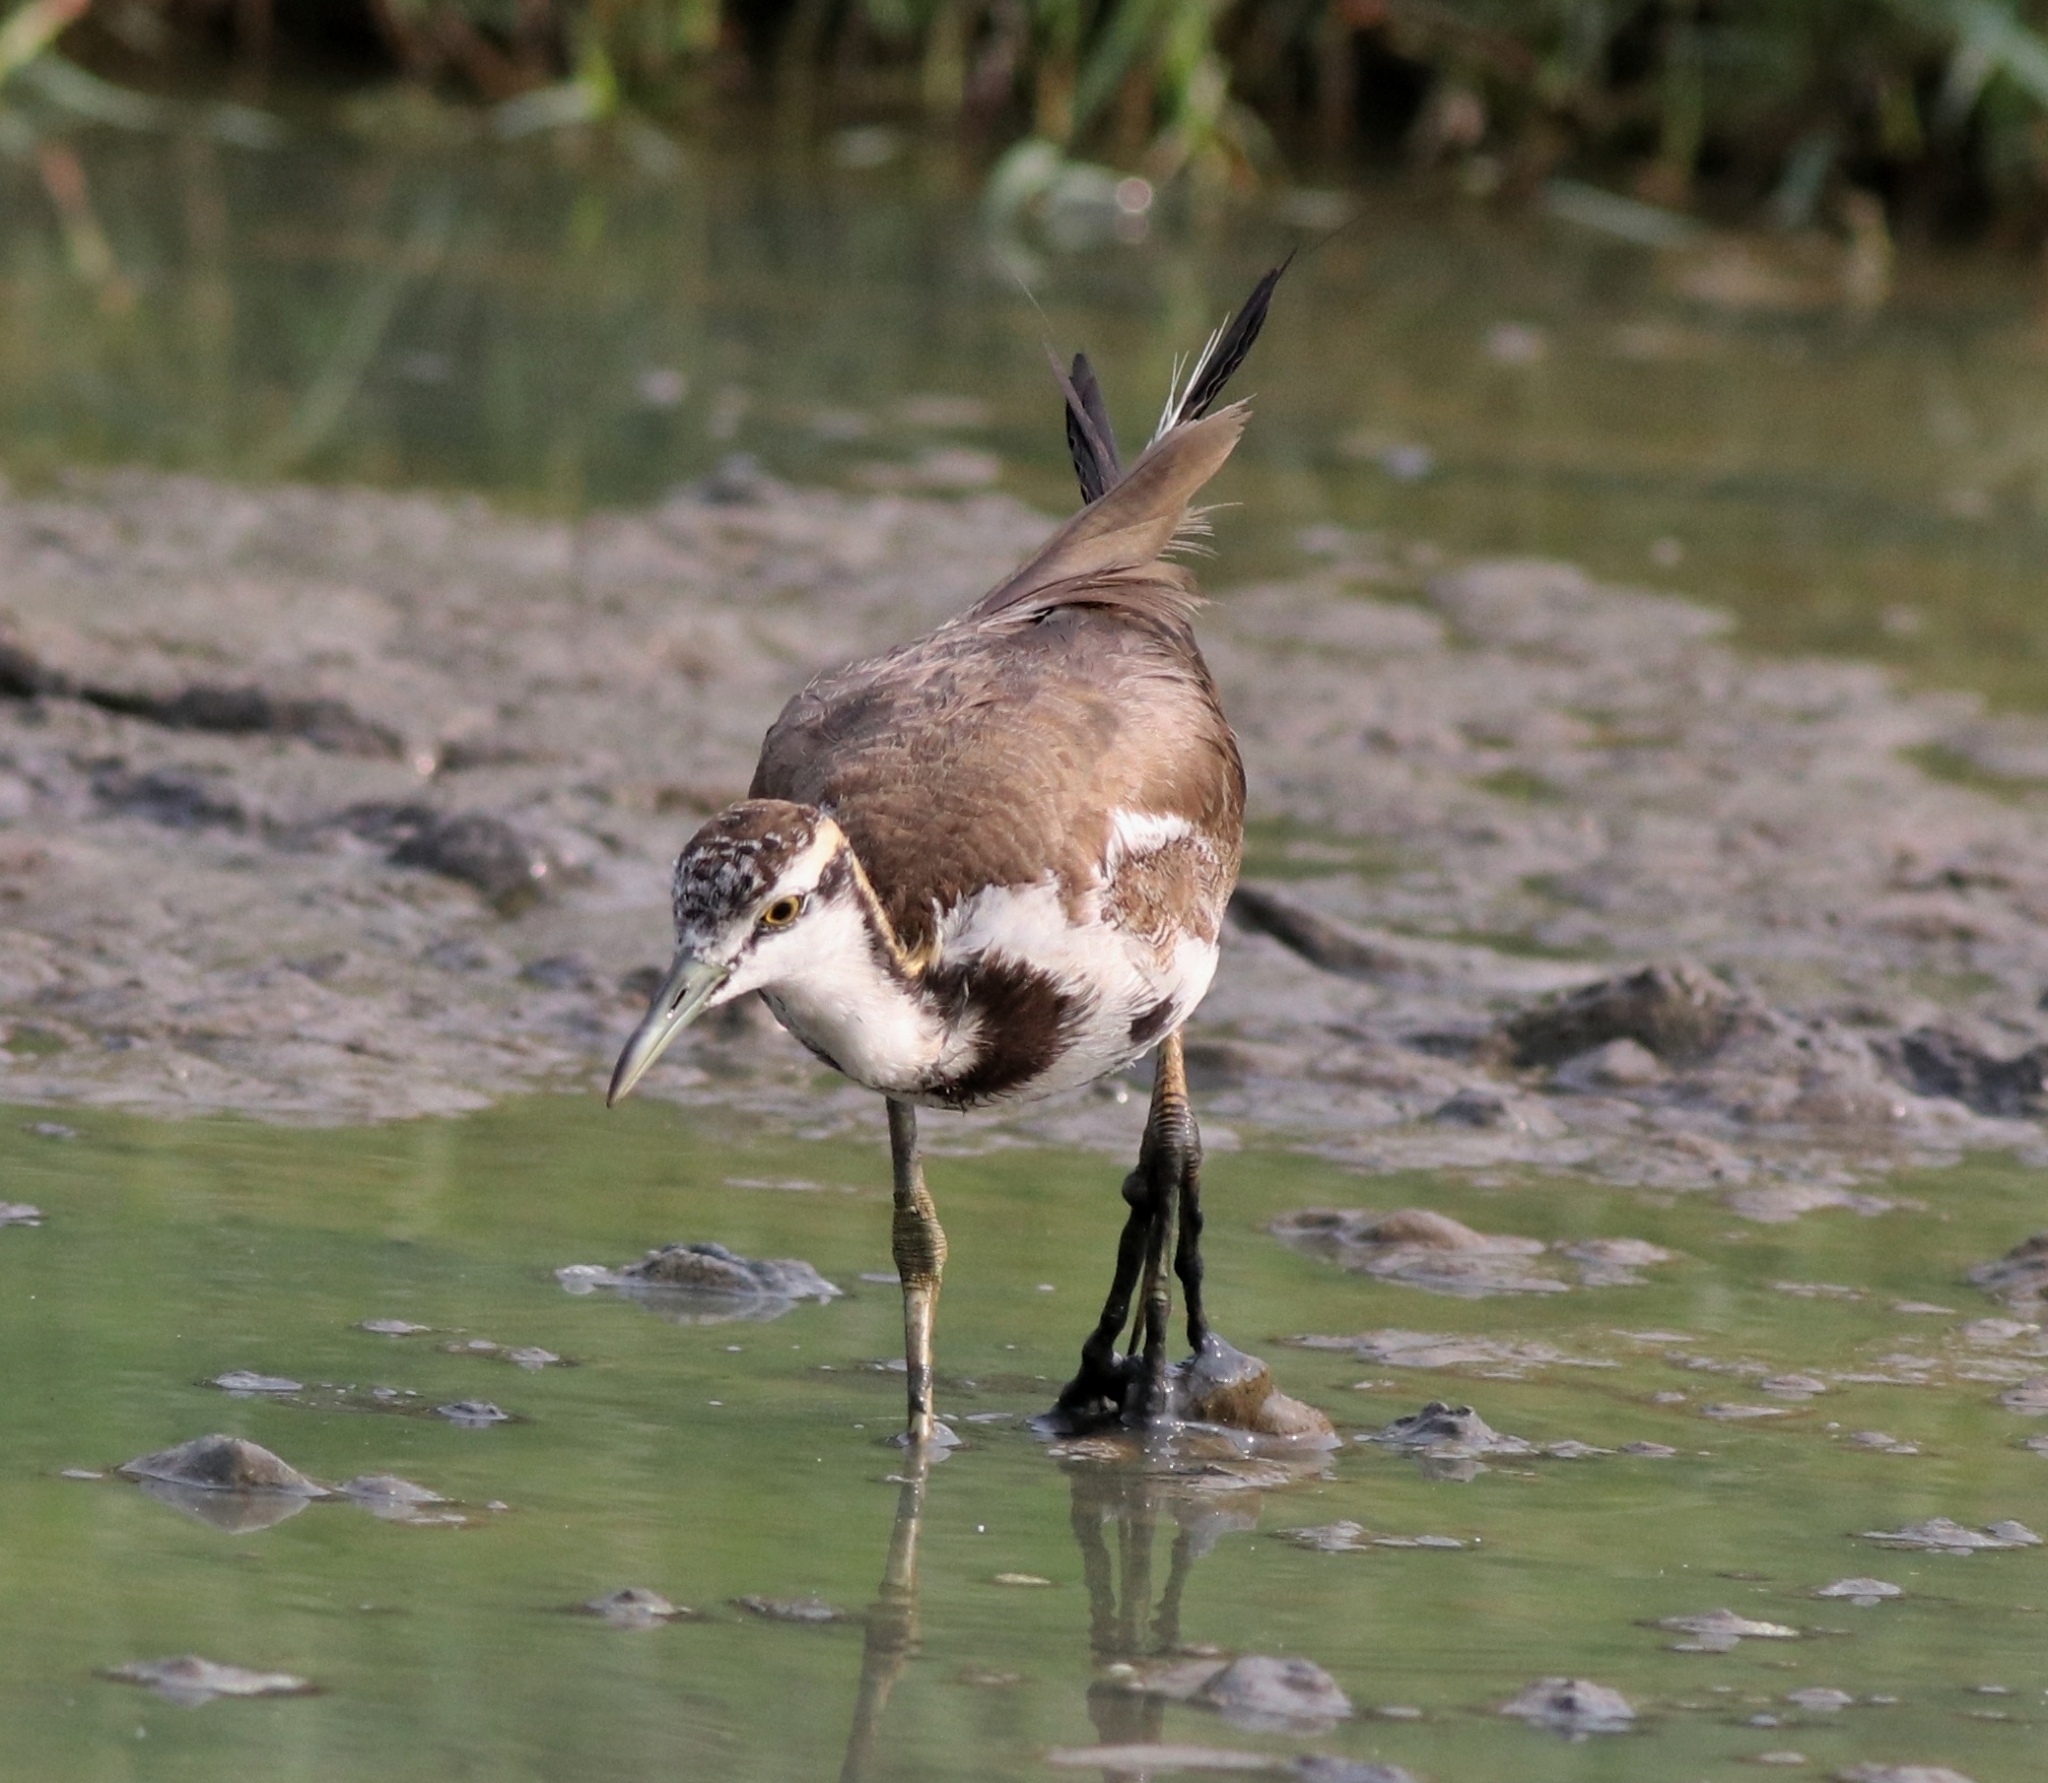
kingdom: Animalia
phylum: Chordata
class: Aves
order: Charadriiformes
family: Jacanidae
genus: Hydrophasianus
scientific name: Hydrophasianus chirurgus
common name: Pheasant-tailed jacana
